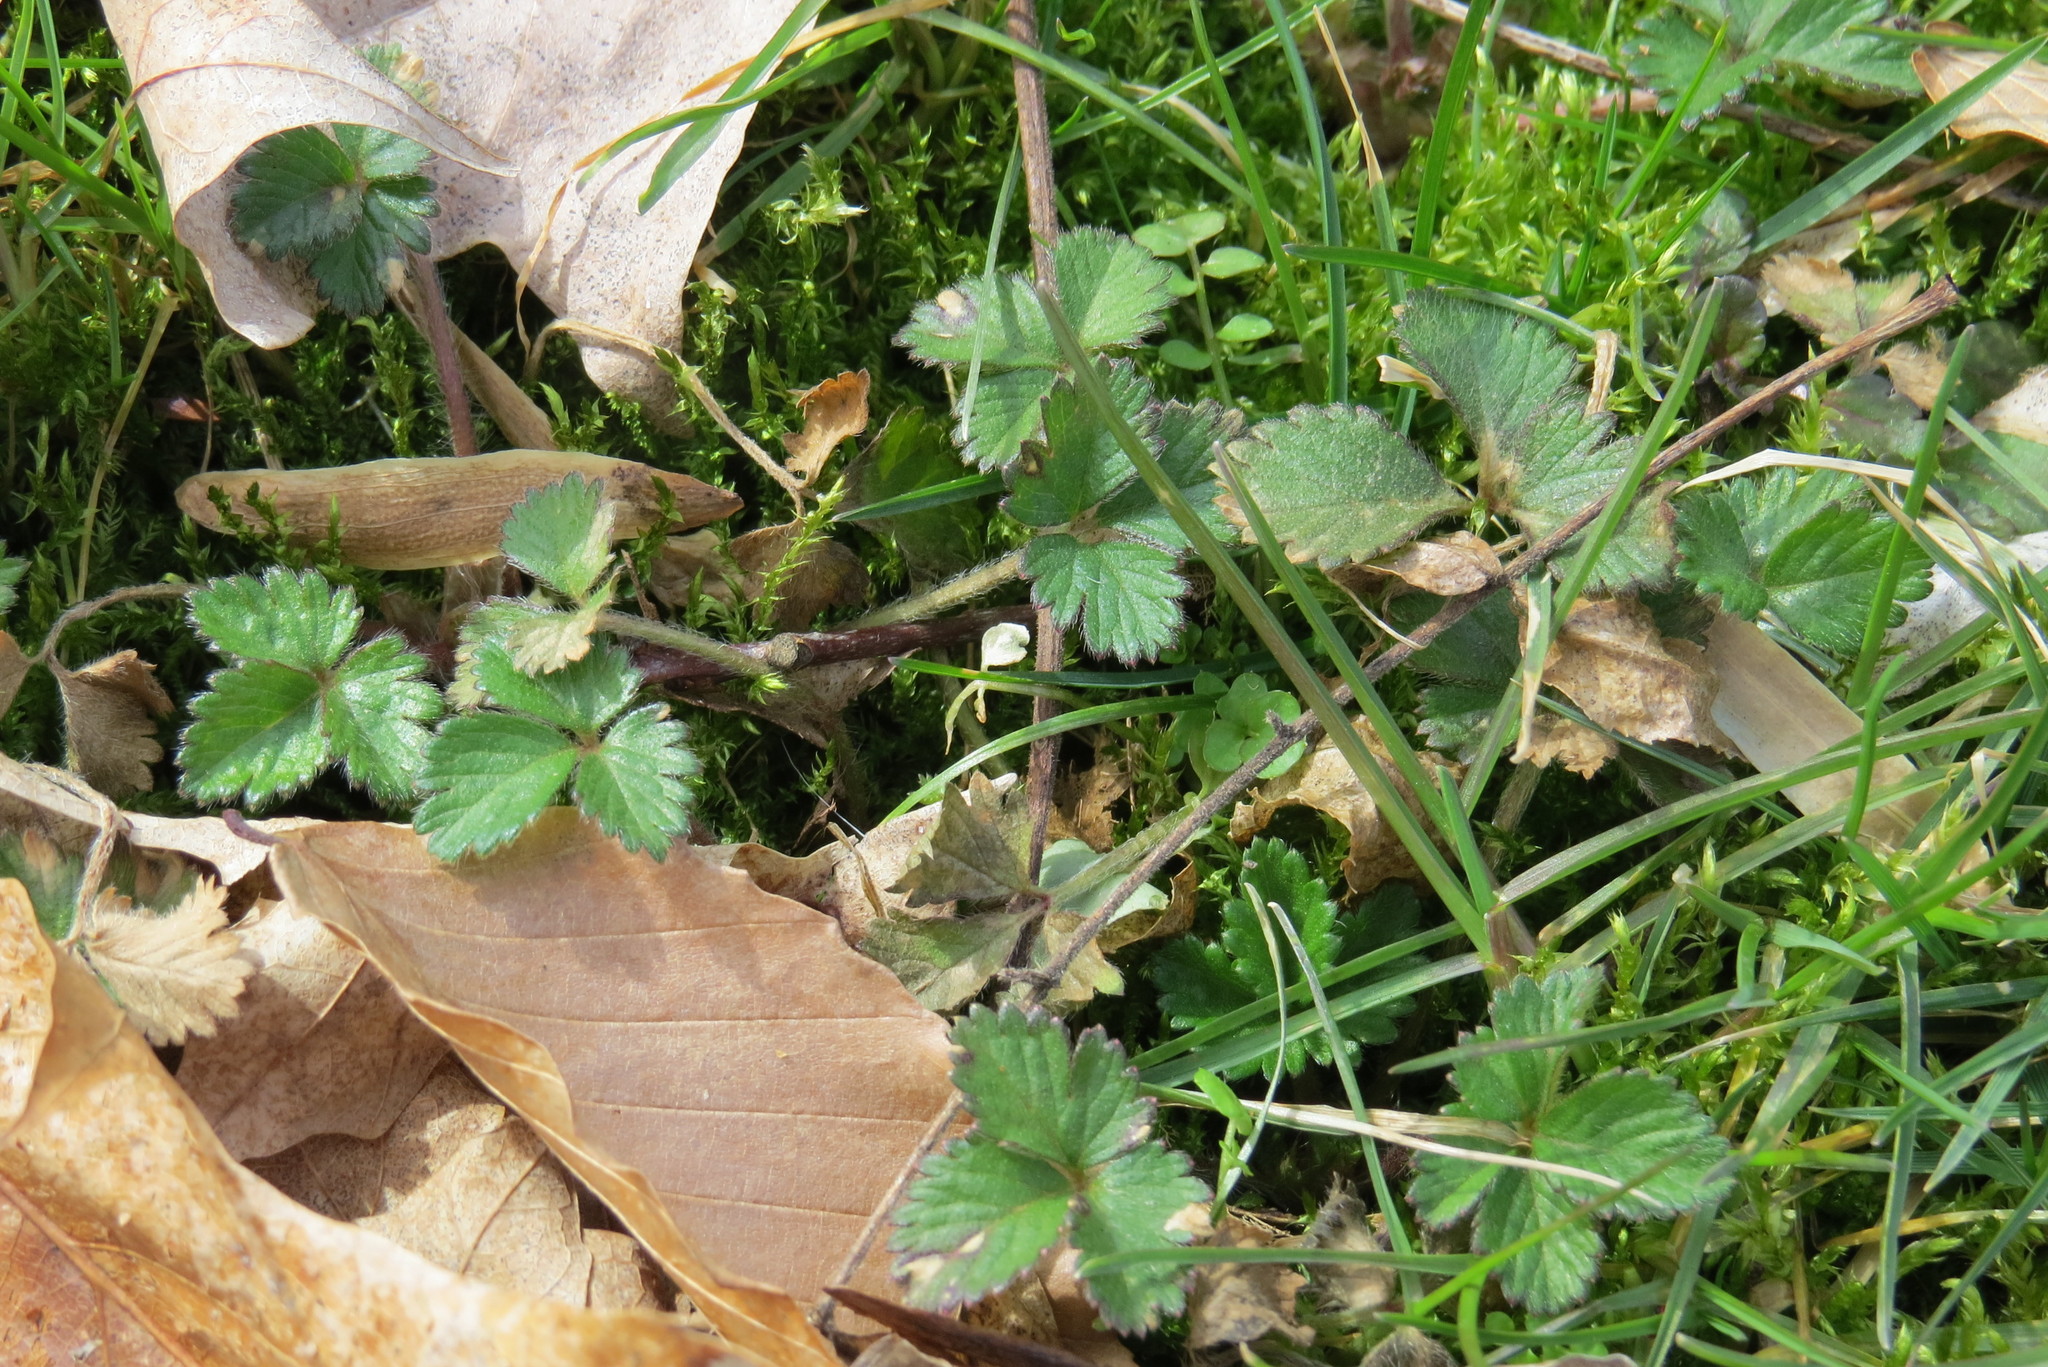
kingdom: Plantae
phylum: Tracheophyta
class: Magnoliopsida
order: Rosales
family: Rosaceae
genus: Potentilla
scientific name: Potentilla indica
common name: Yellow-flowered strawberry
